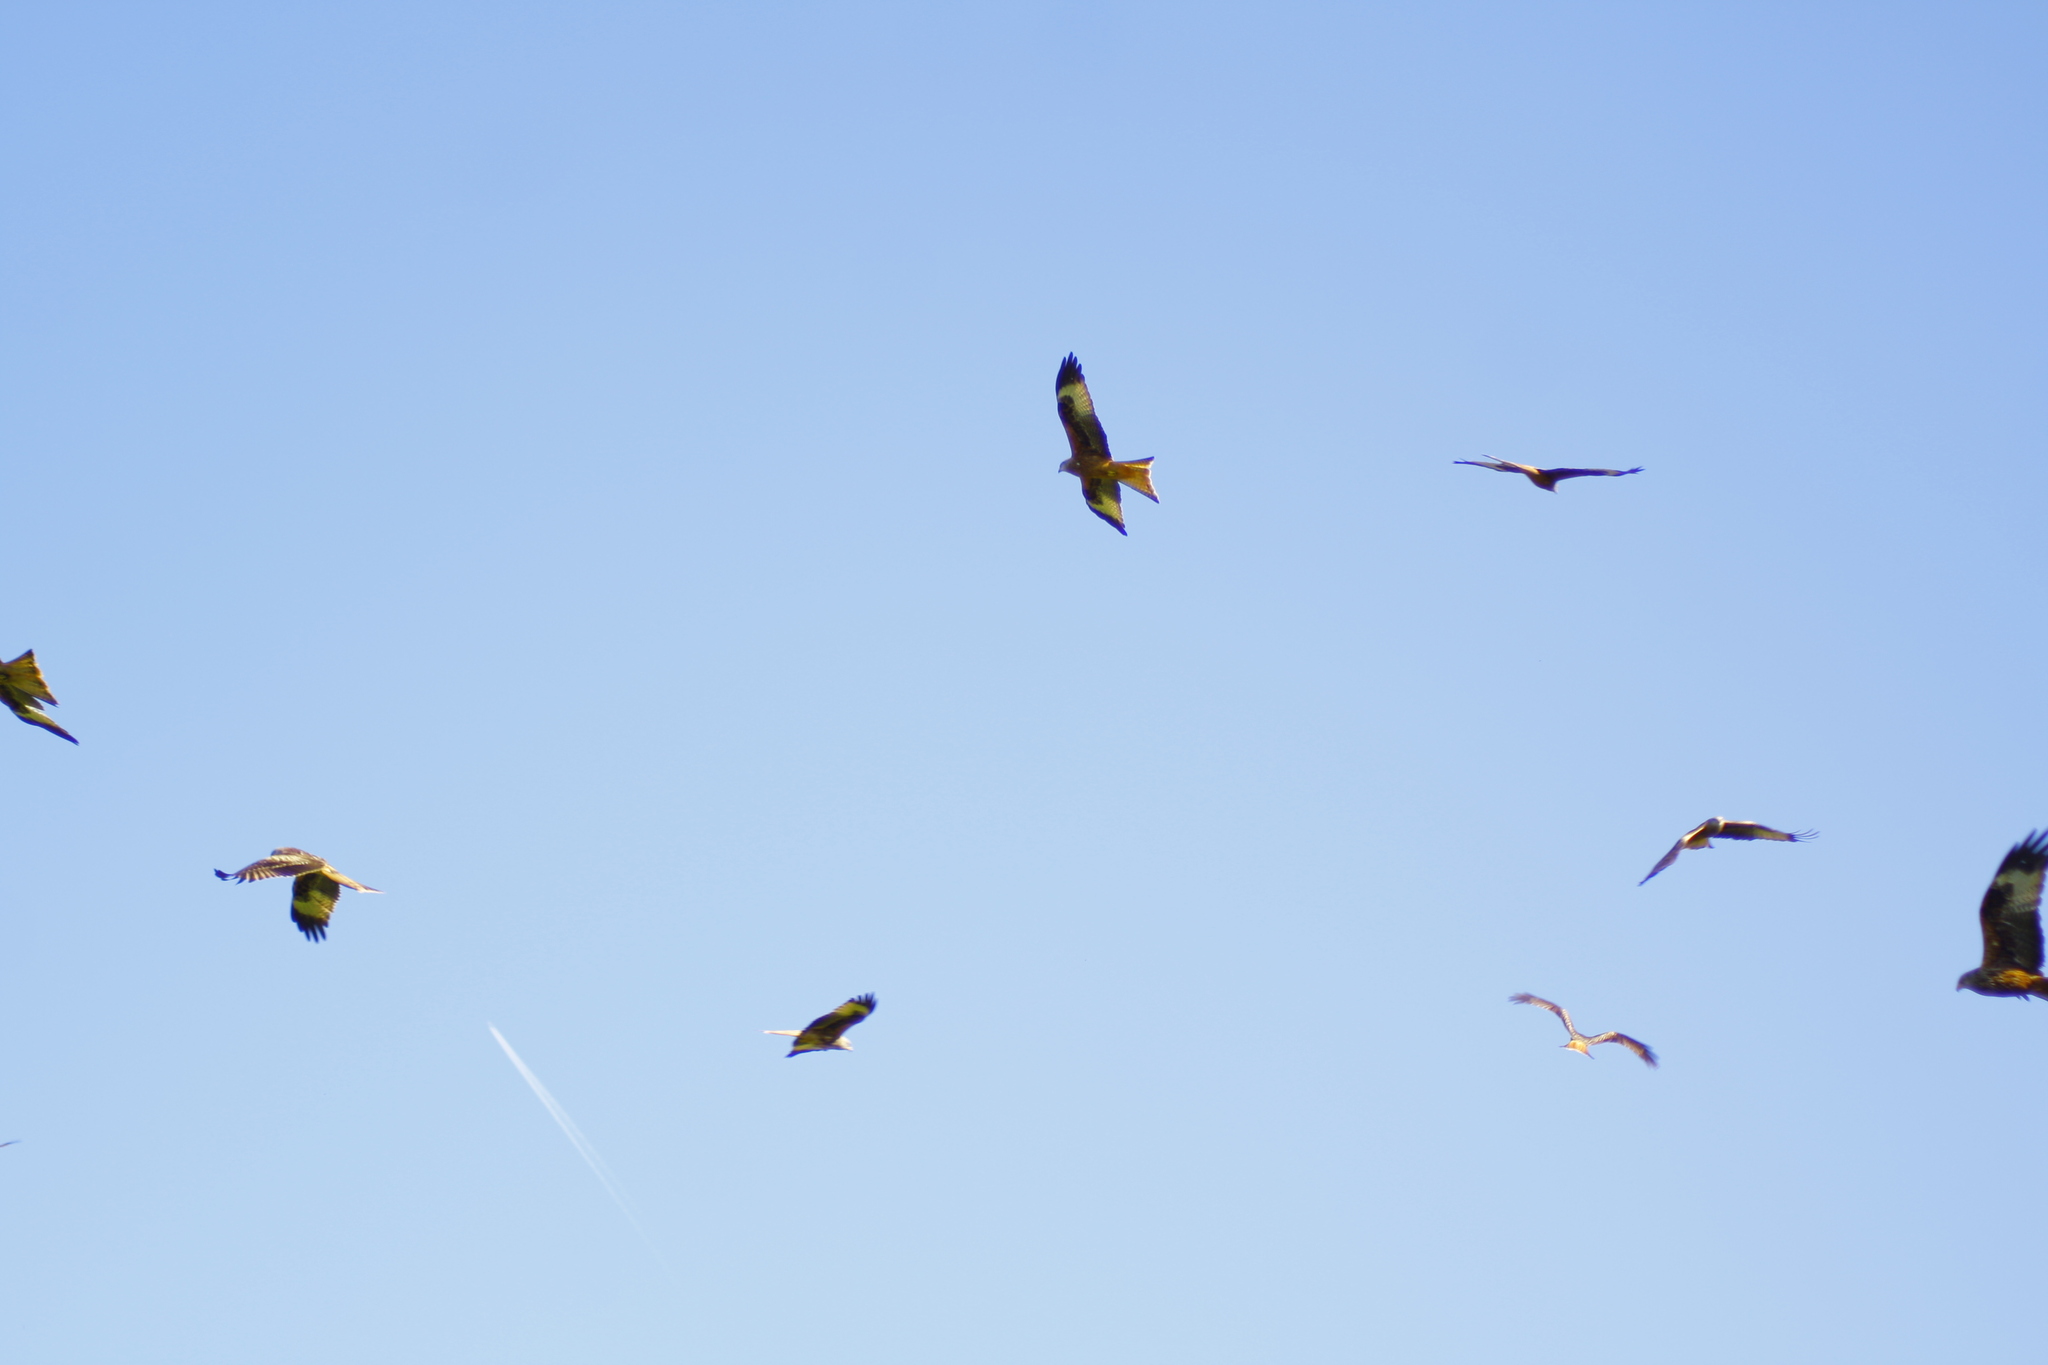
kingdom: Animalia
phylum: Chordata
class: Aves
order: Accipitriformes
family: Accipitridae
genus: Milvus
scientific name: Milvus milvus
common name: Red kite
